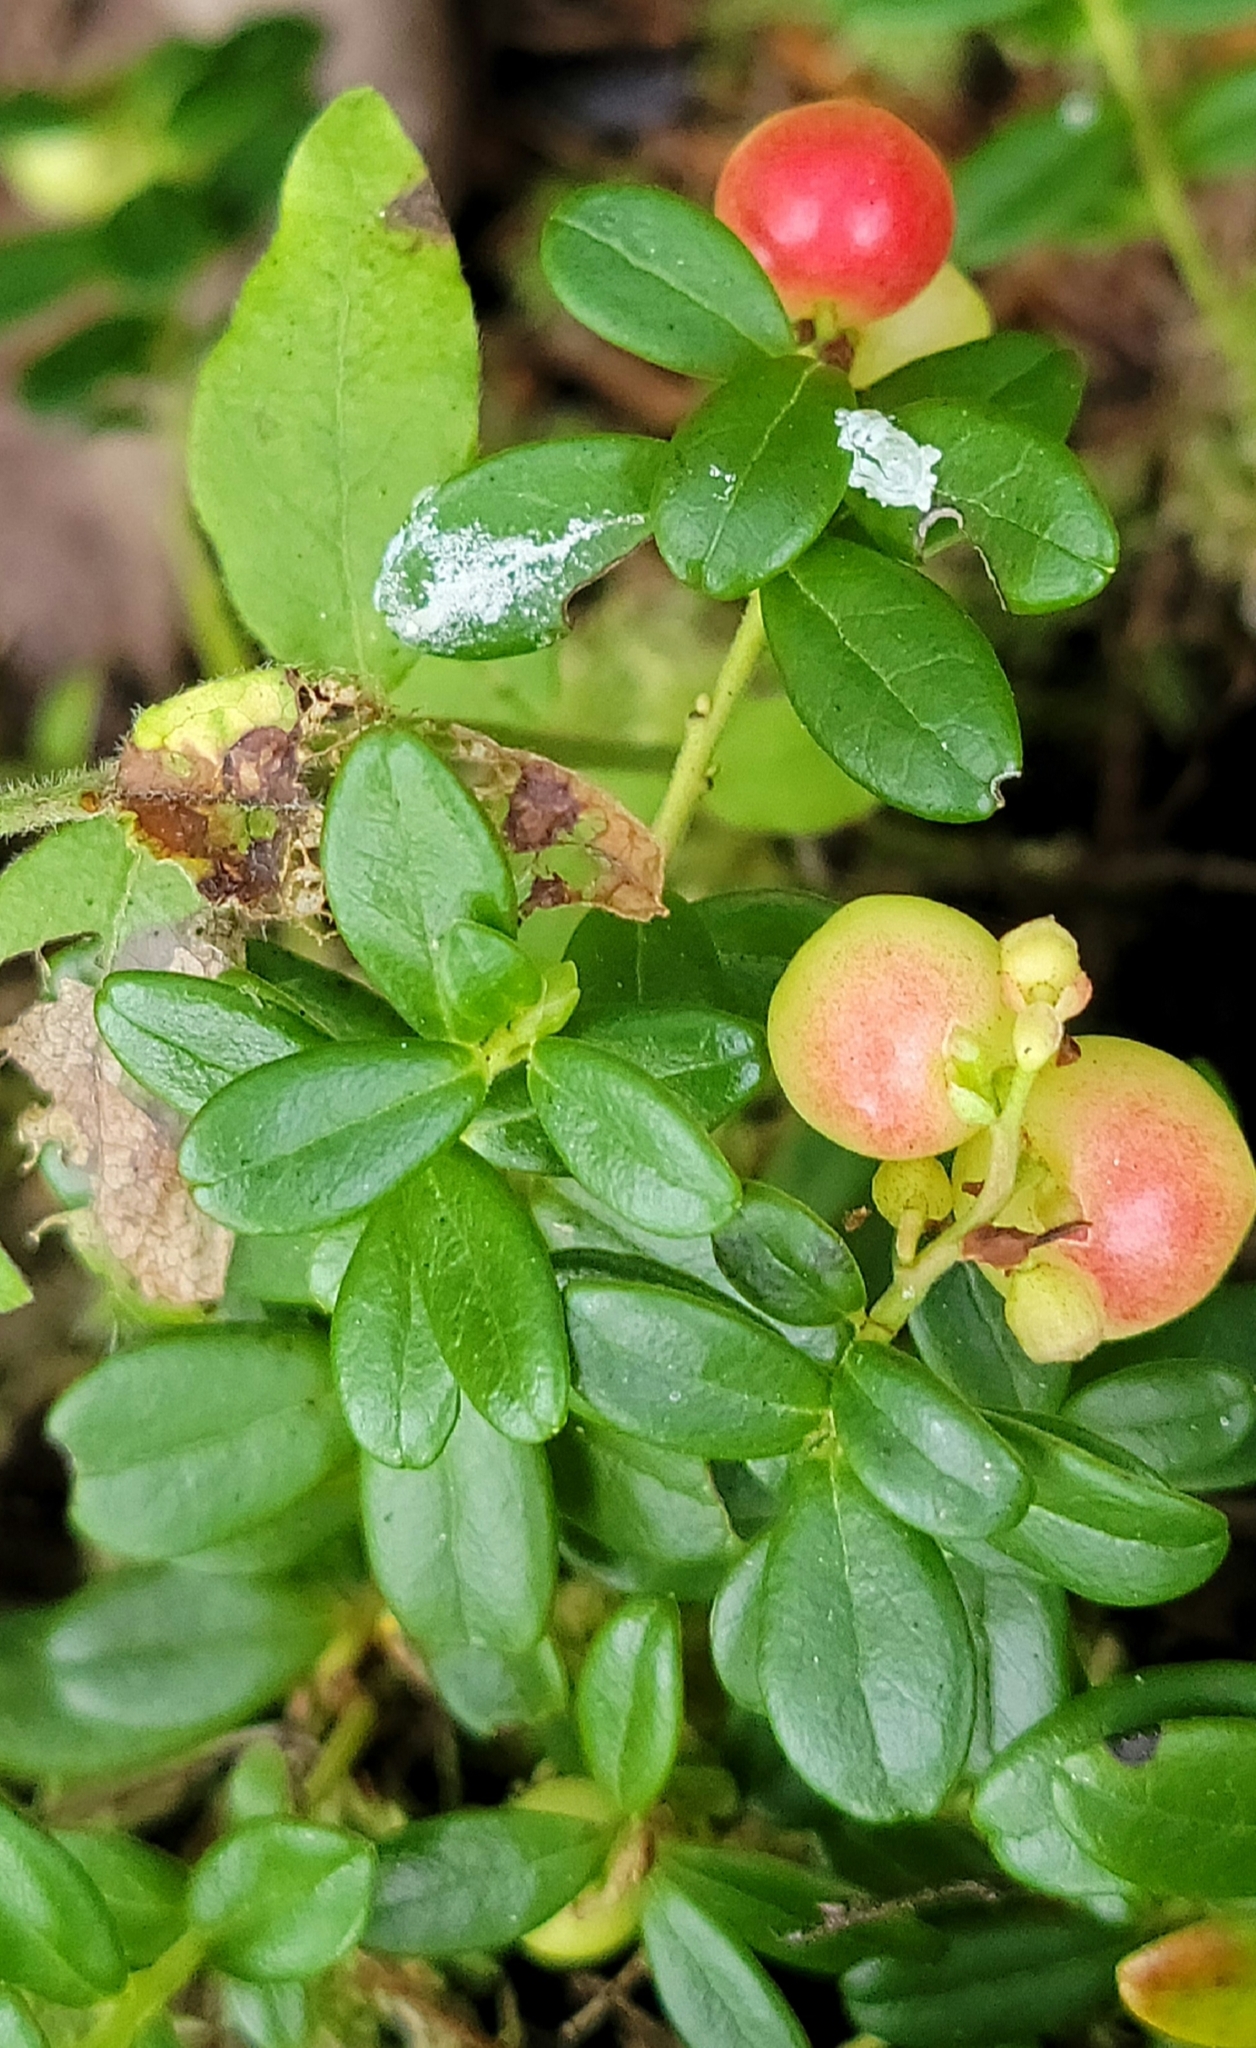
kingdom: Plantae
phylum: Tracheophyta
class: Magnoliopsida
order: Ericales
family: Ericaceae
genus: Vaccinium
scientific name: Vaccinium vitis-idaea
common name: Cowberry
